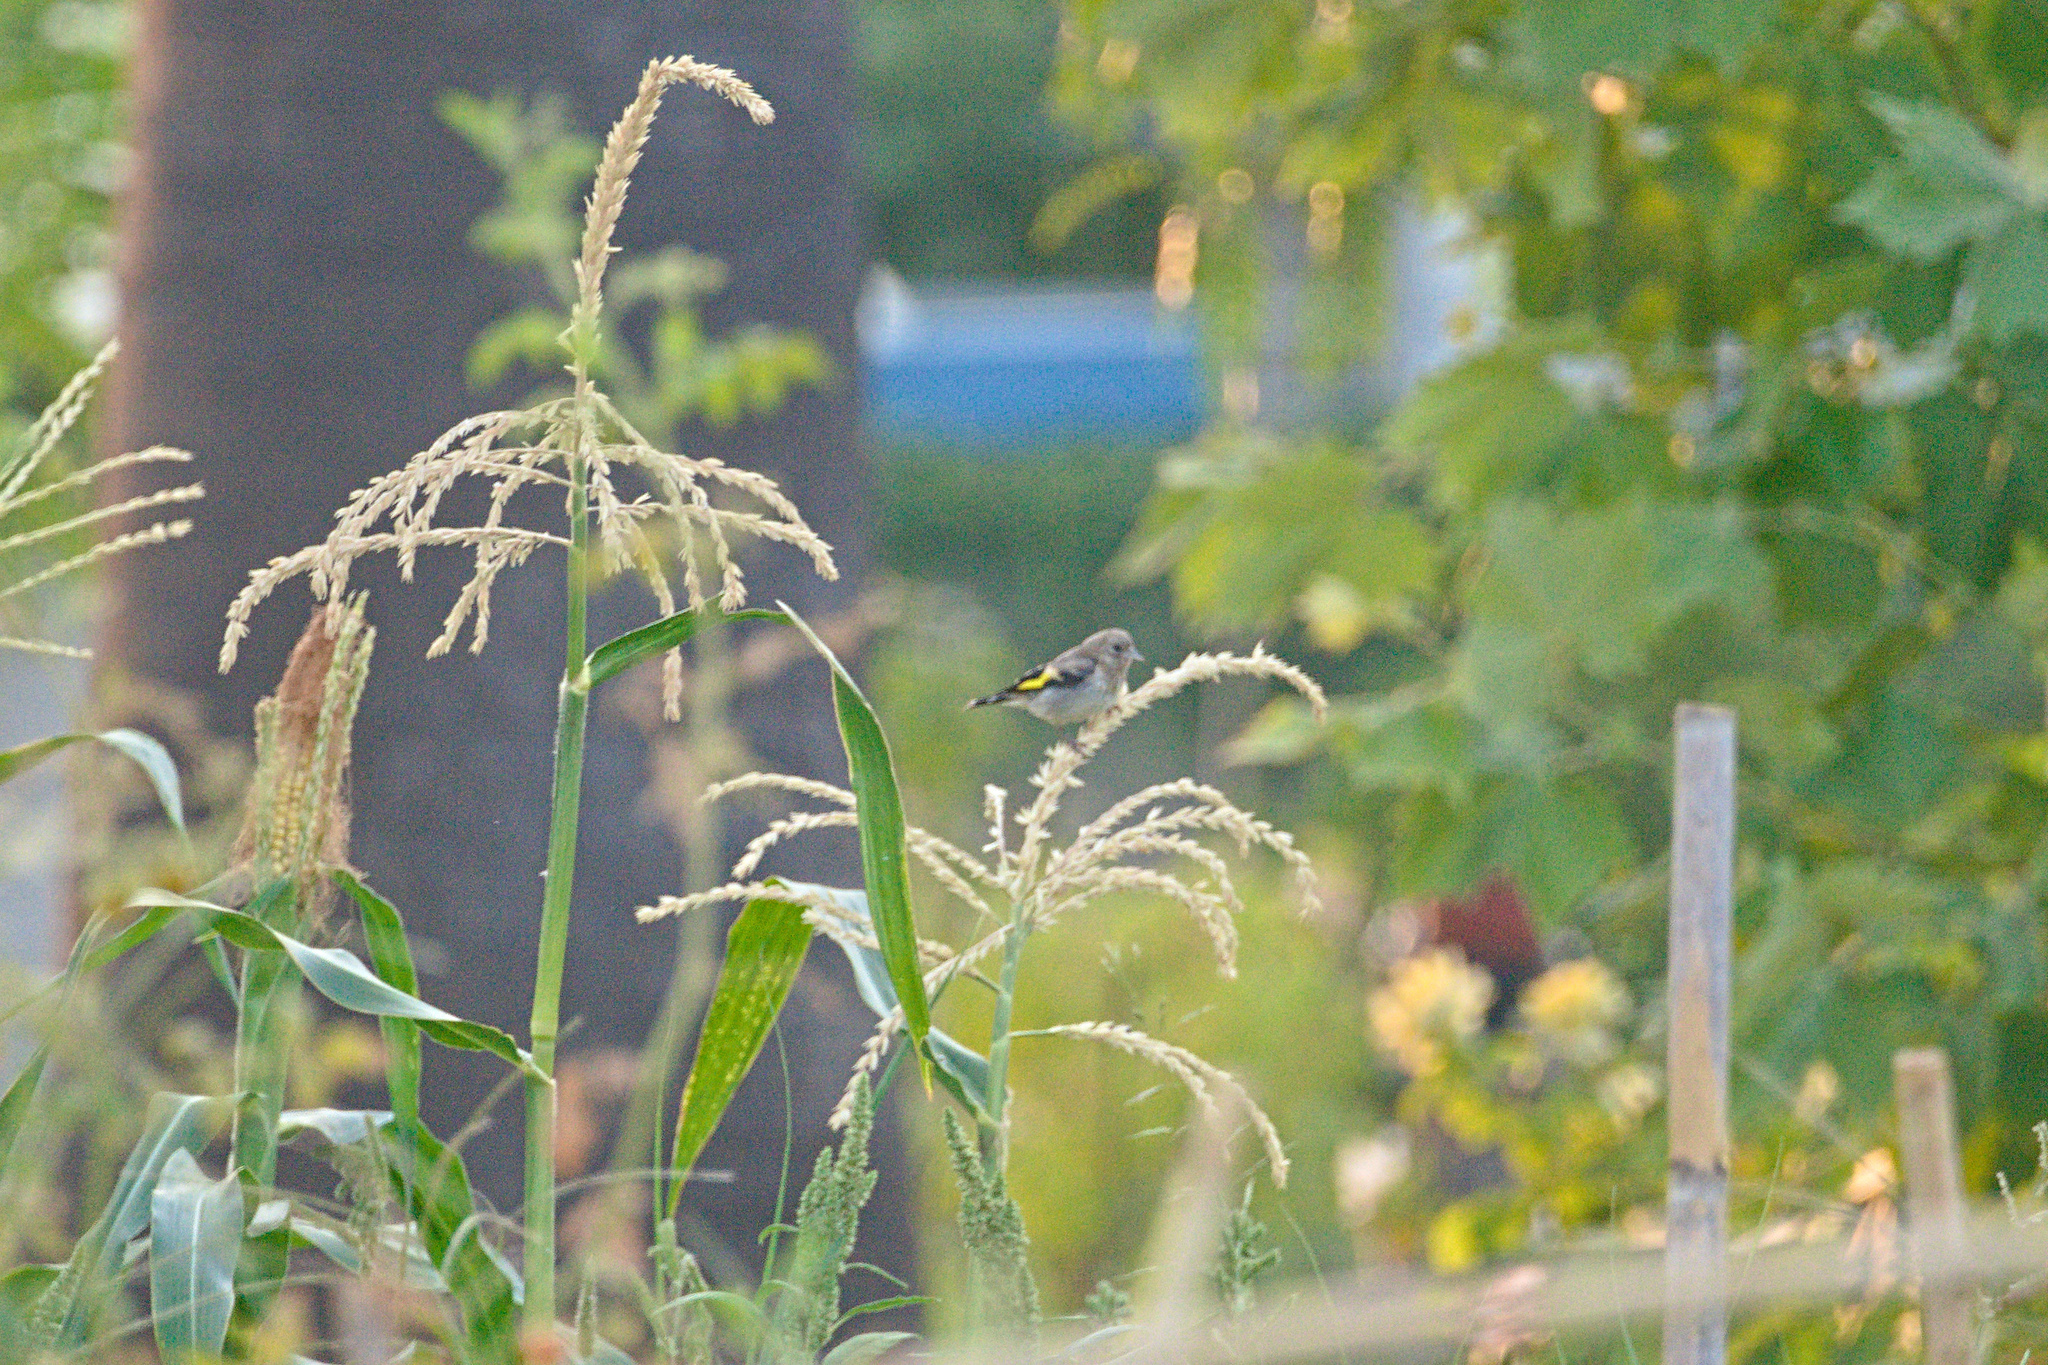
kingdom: Animalia
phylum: Chordata
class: Aves
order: Passeriformes
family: Fringillidae
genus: Carduelis
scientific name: Carduelis carduelis
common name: European goldfinch
